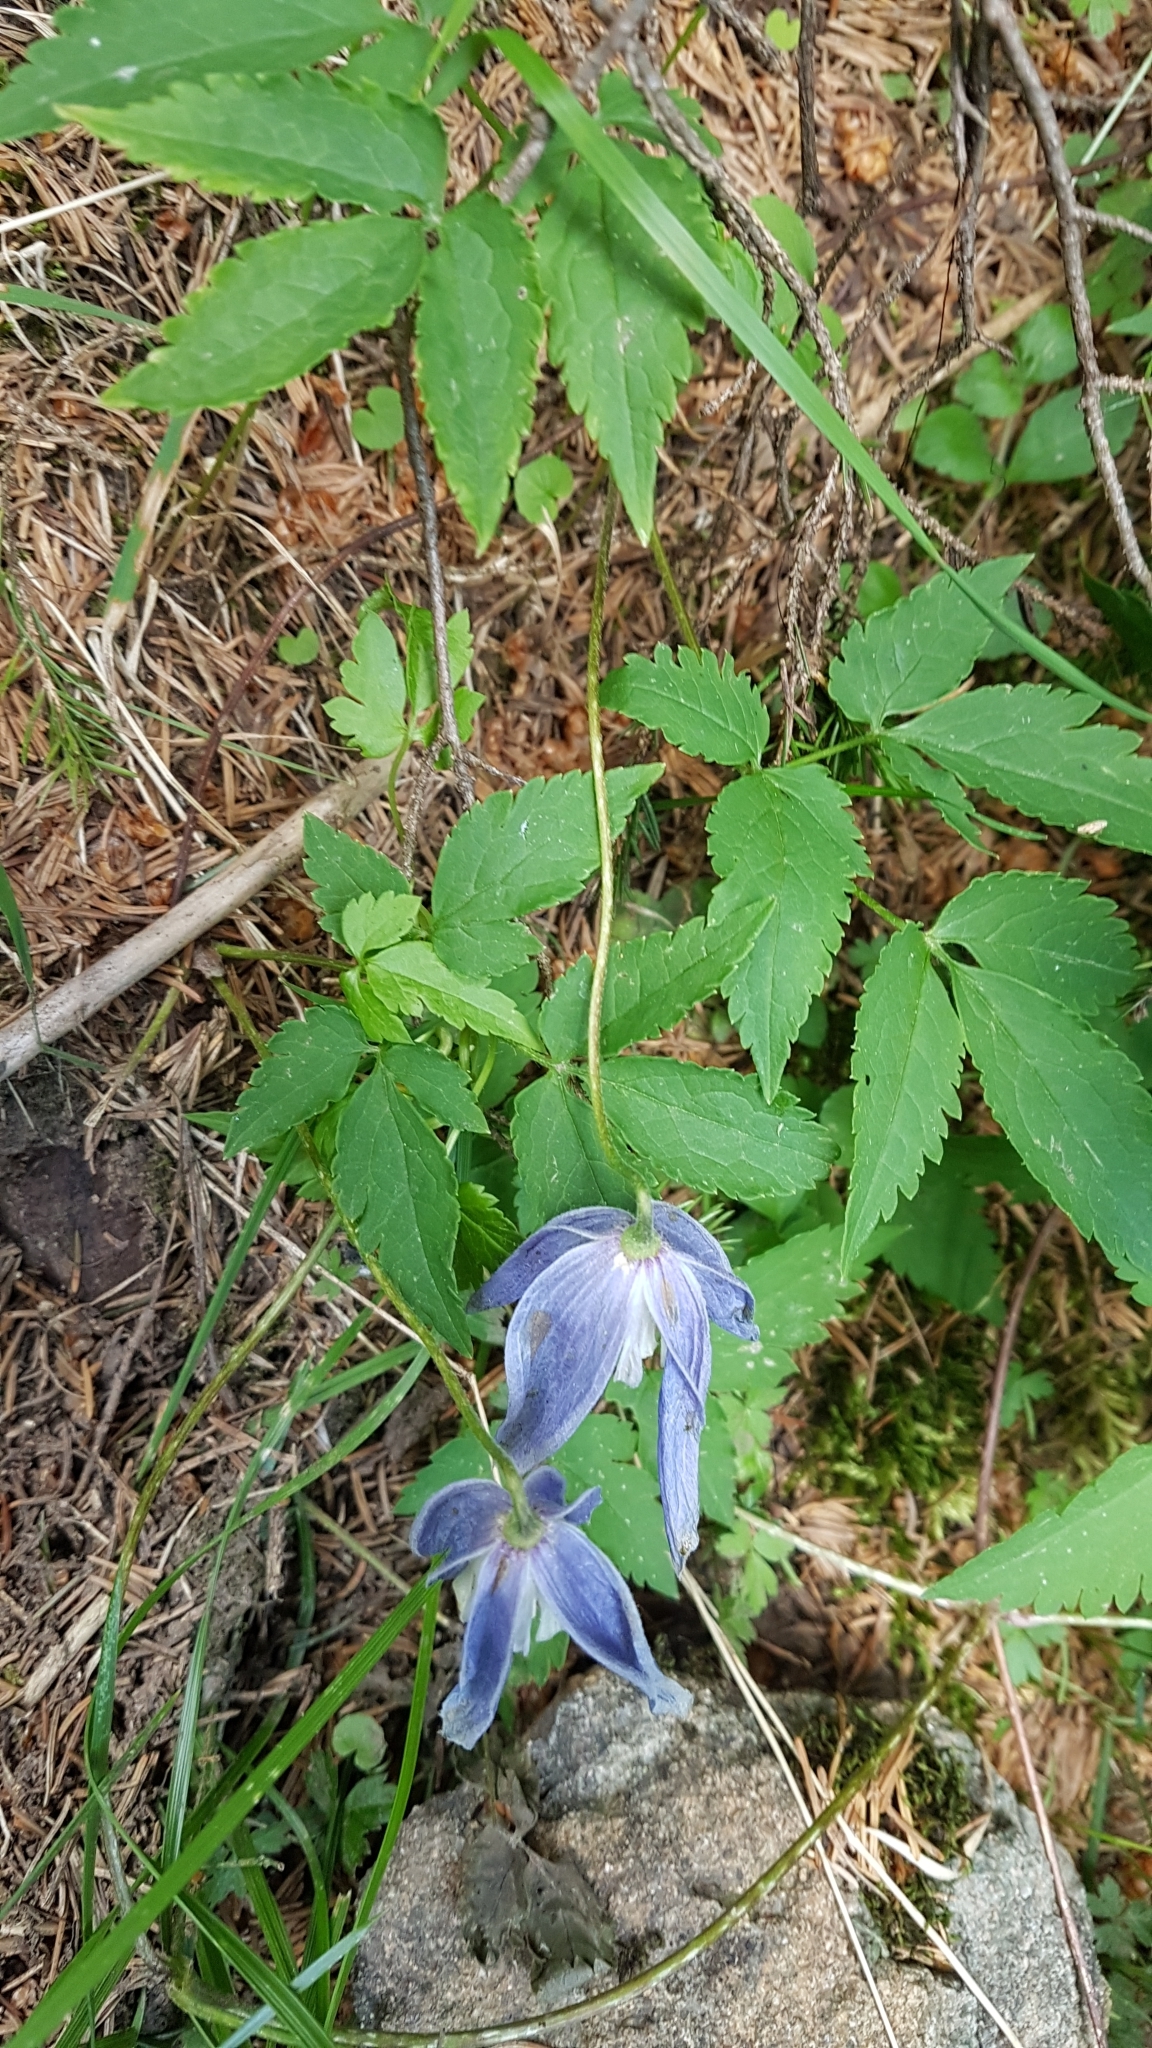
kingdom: Plantae
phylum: Tracheophyta
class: Magnoliopsida
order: Ranunculales
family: Ranunculaceae
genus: Clematis
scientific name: Clematis alpina
